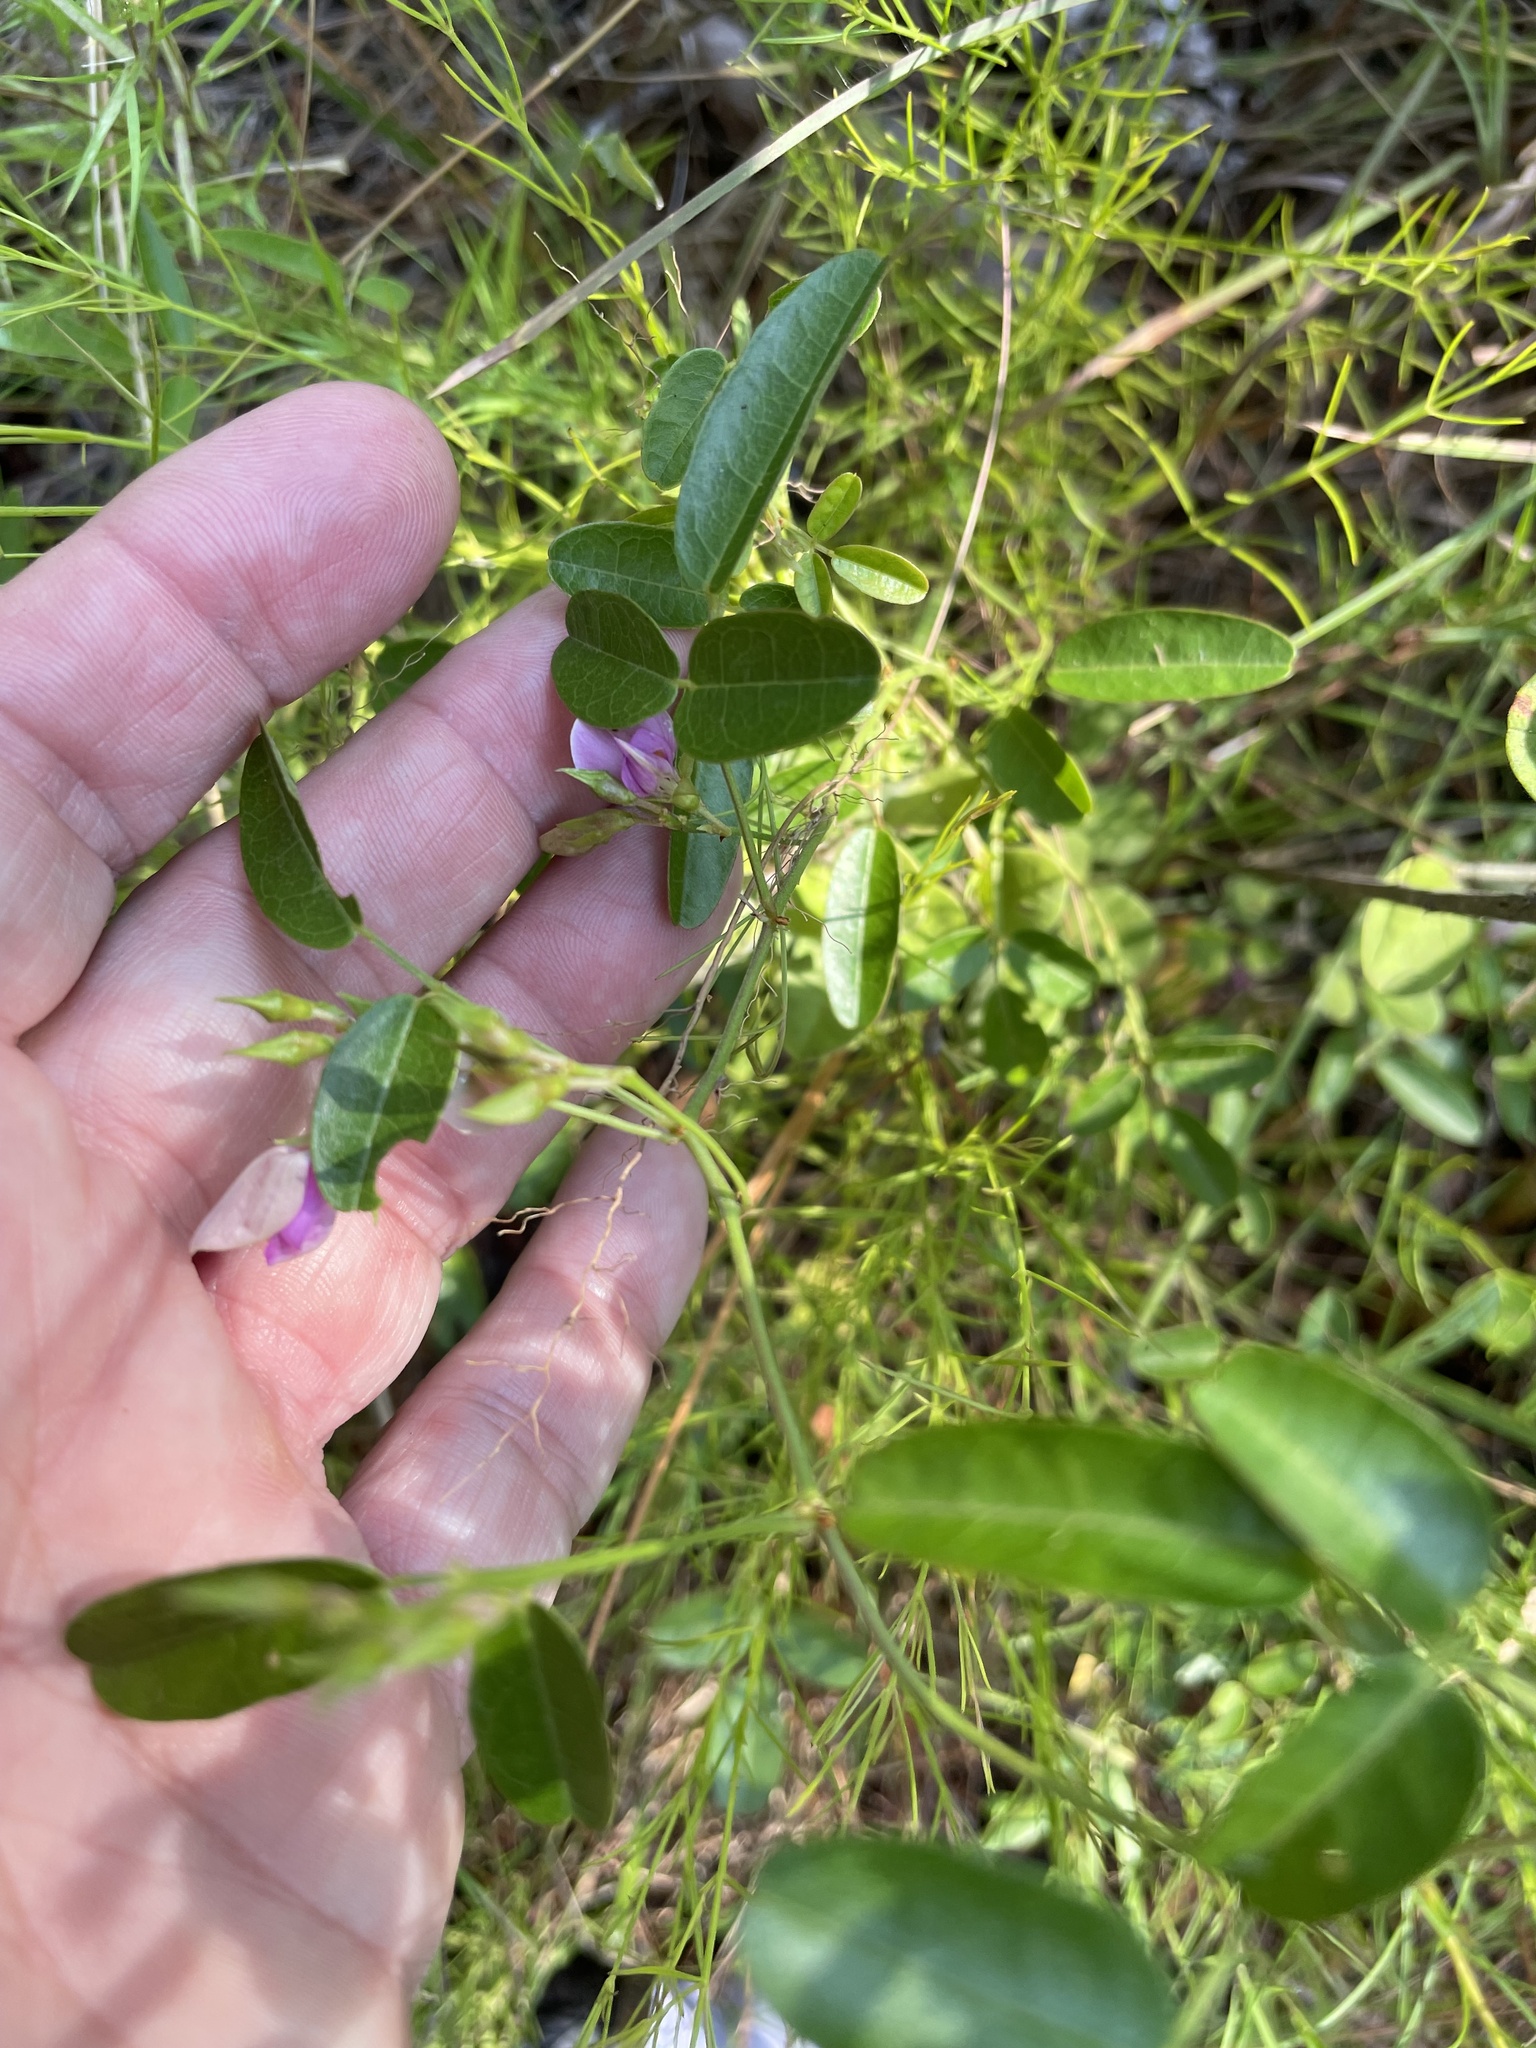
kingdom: Plantae
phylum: Tracheophyta
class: Magnoliopsida
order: Fabales
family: Fabaceae
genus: Galactia
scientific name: Galactia regularis
